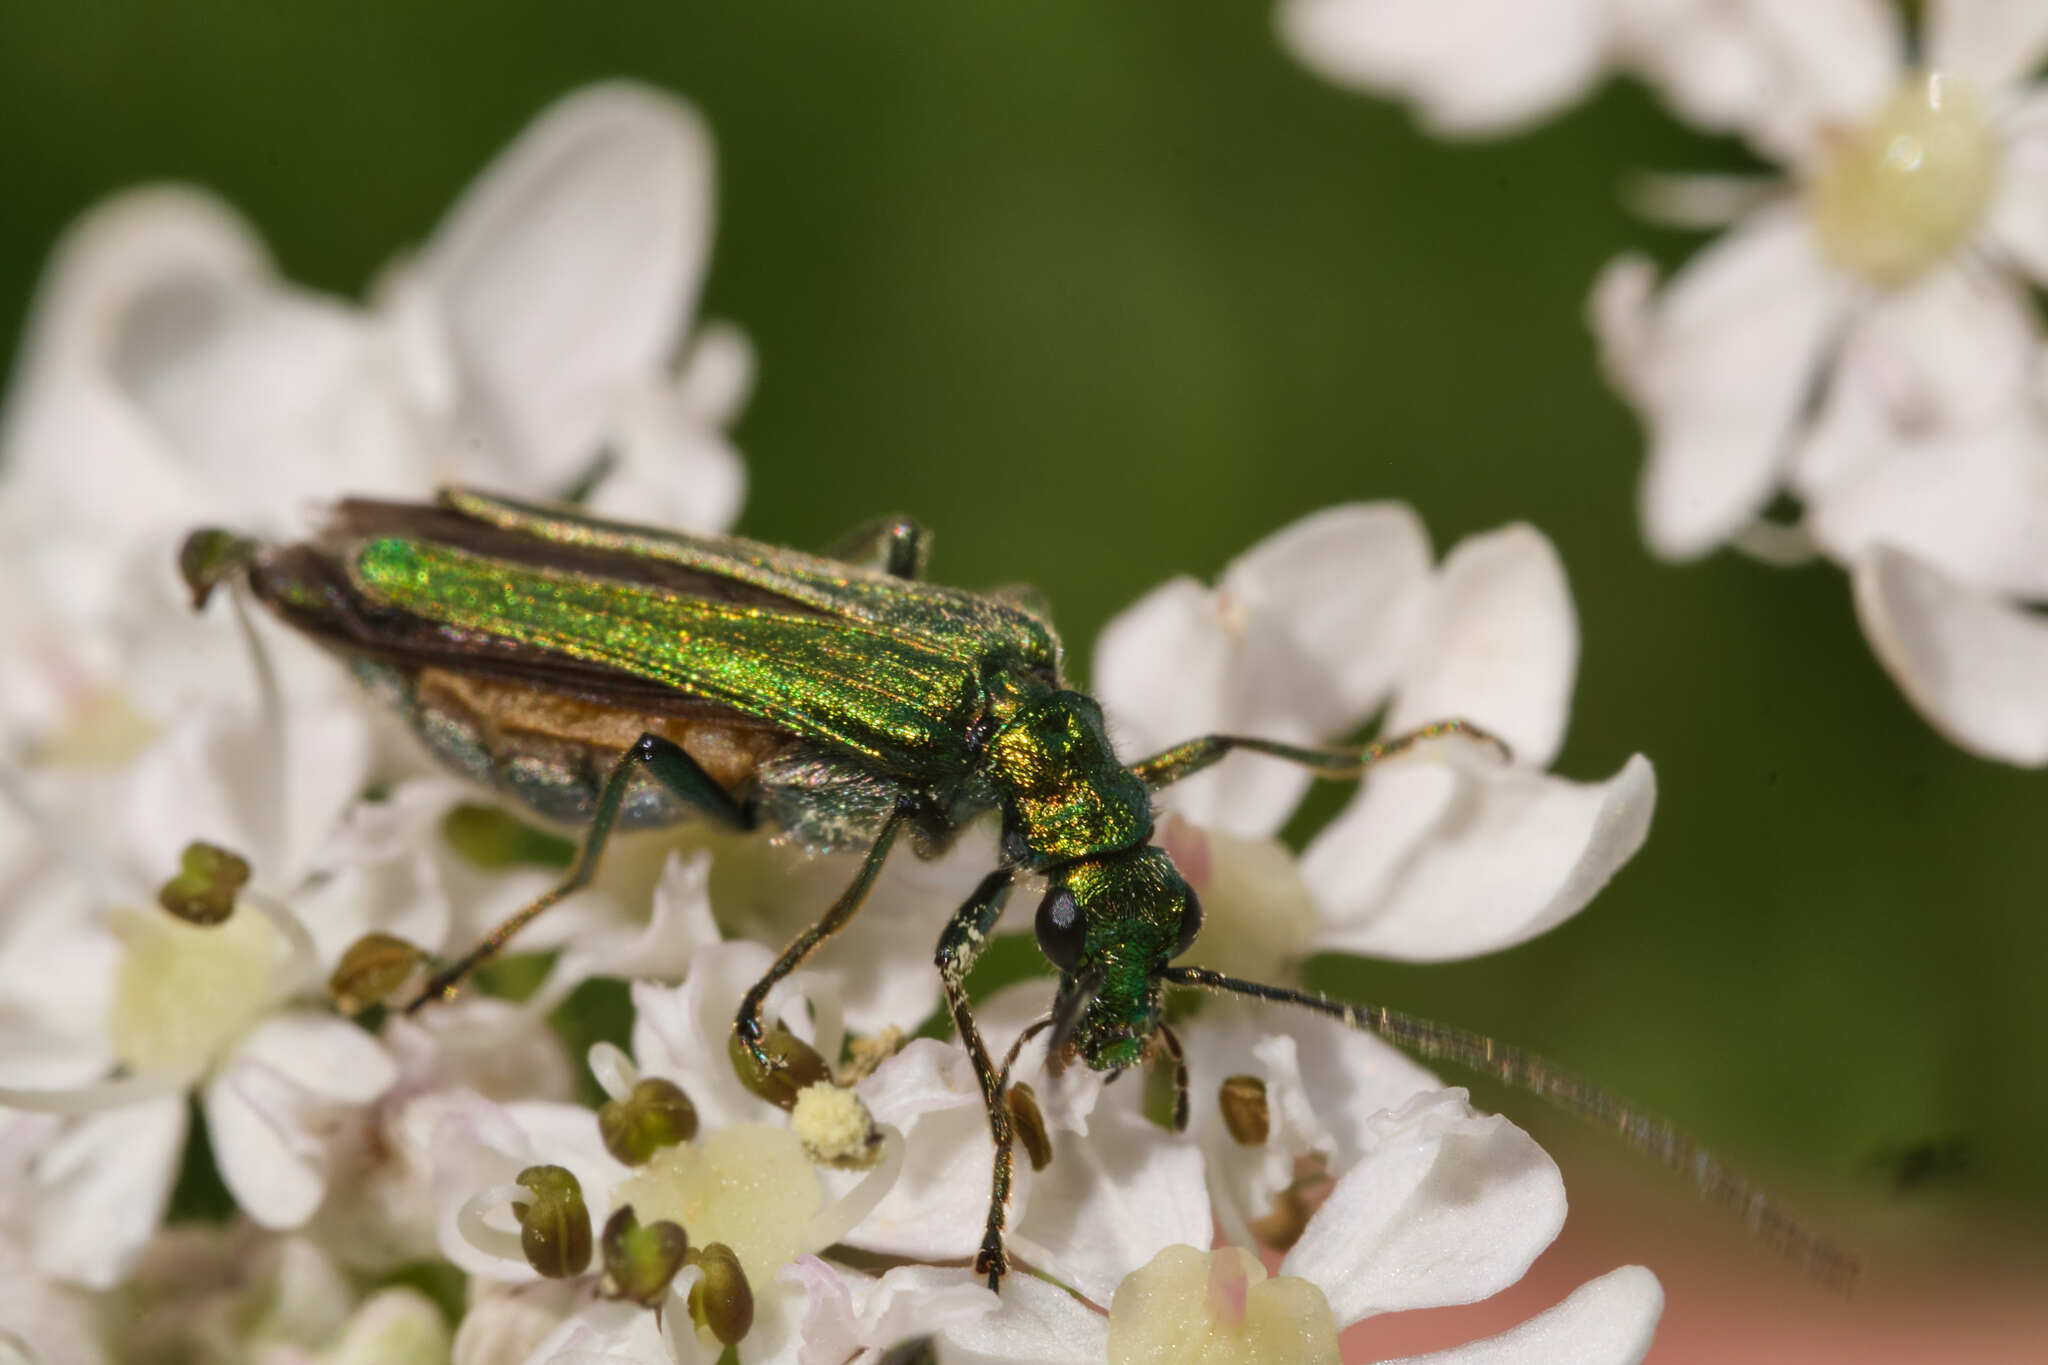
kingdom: Animalia
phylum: Arthropoda
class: Insecta
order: Coleoptera
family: Oedemeridae
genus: Oedemera
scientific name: Oedemera nobilis
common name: Swollen-thighed beetle
